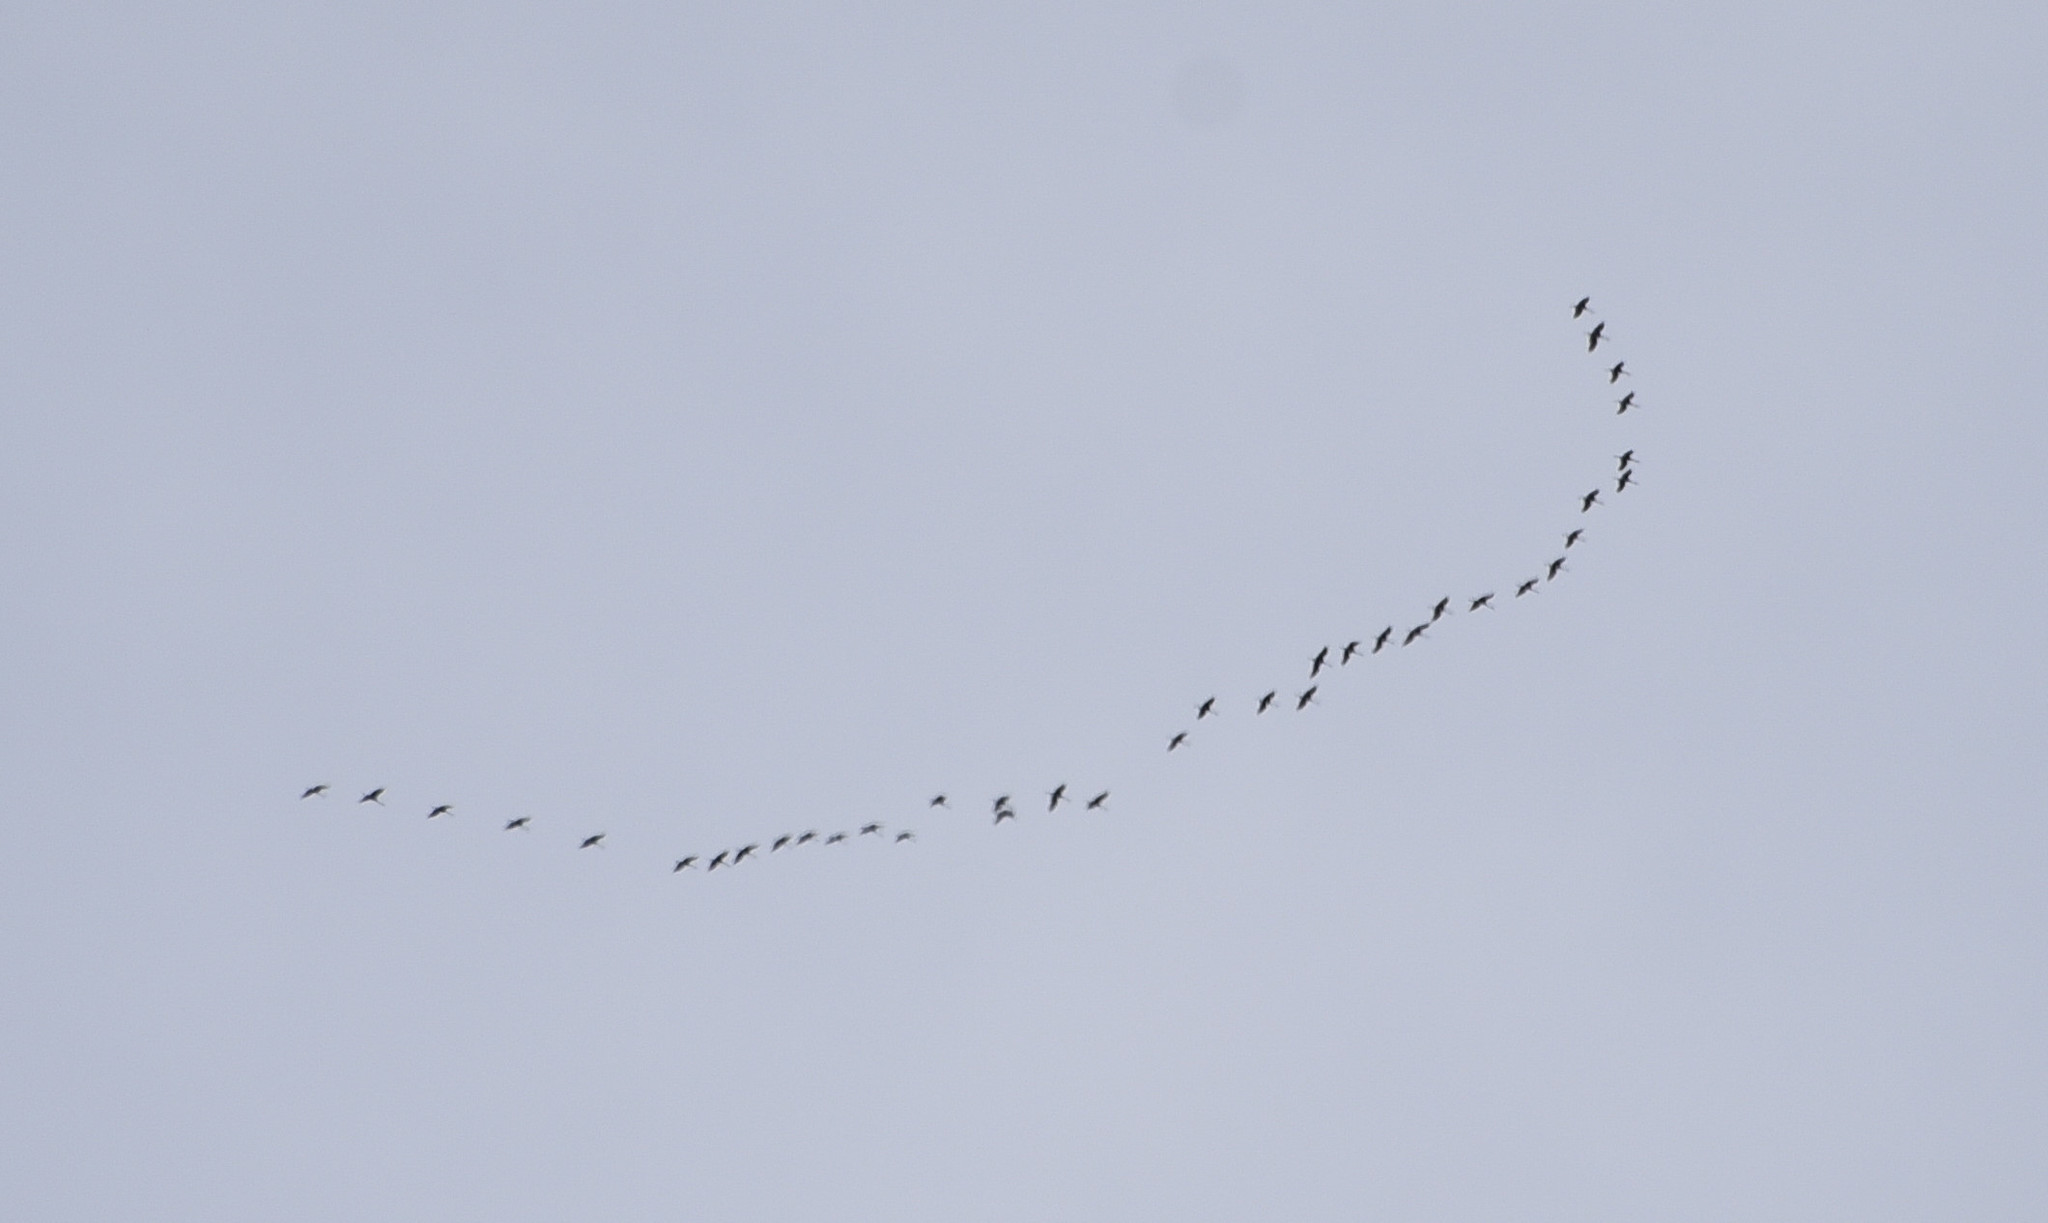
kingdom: Animalia
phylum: Chordata
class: Aves
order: Gruiformes
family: Gruidae
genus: Grus
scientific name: Grus canadensis
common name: Sandhill crane
